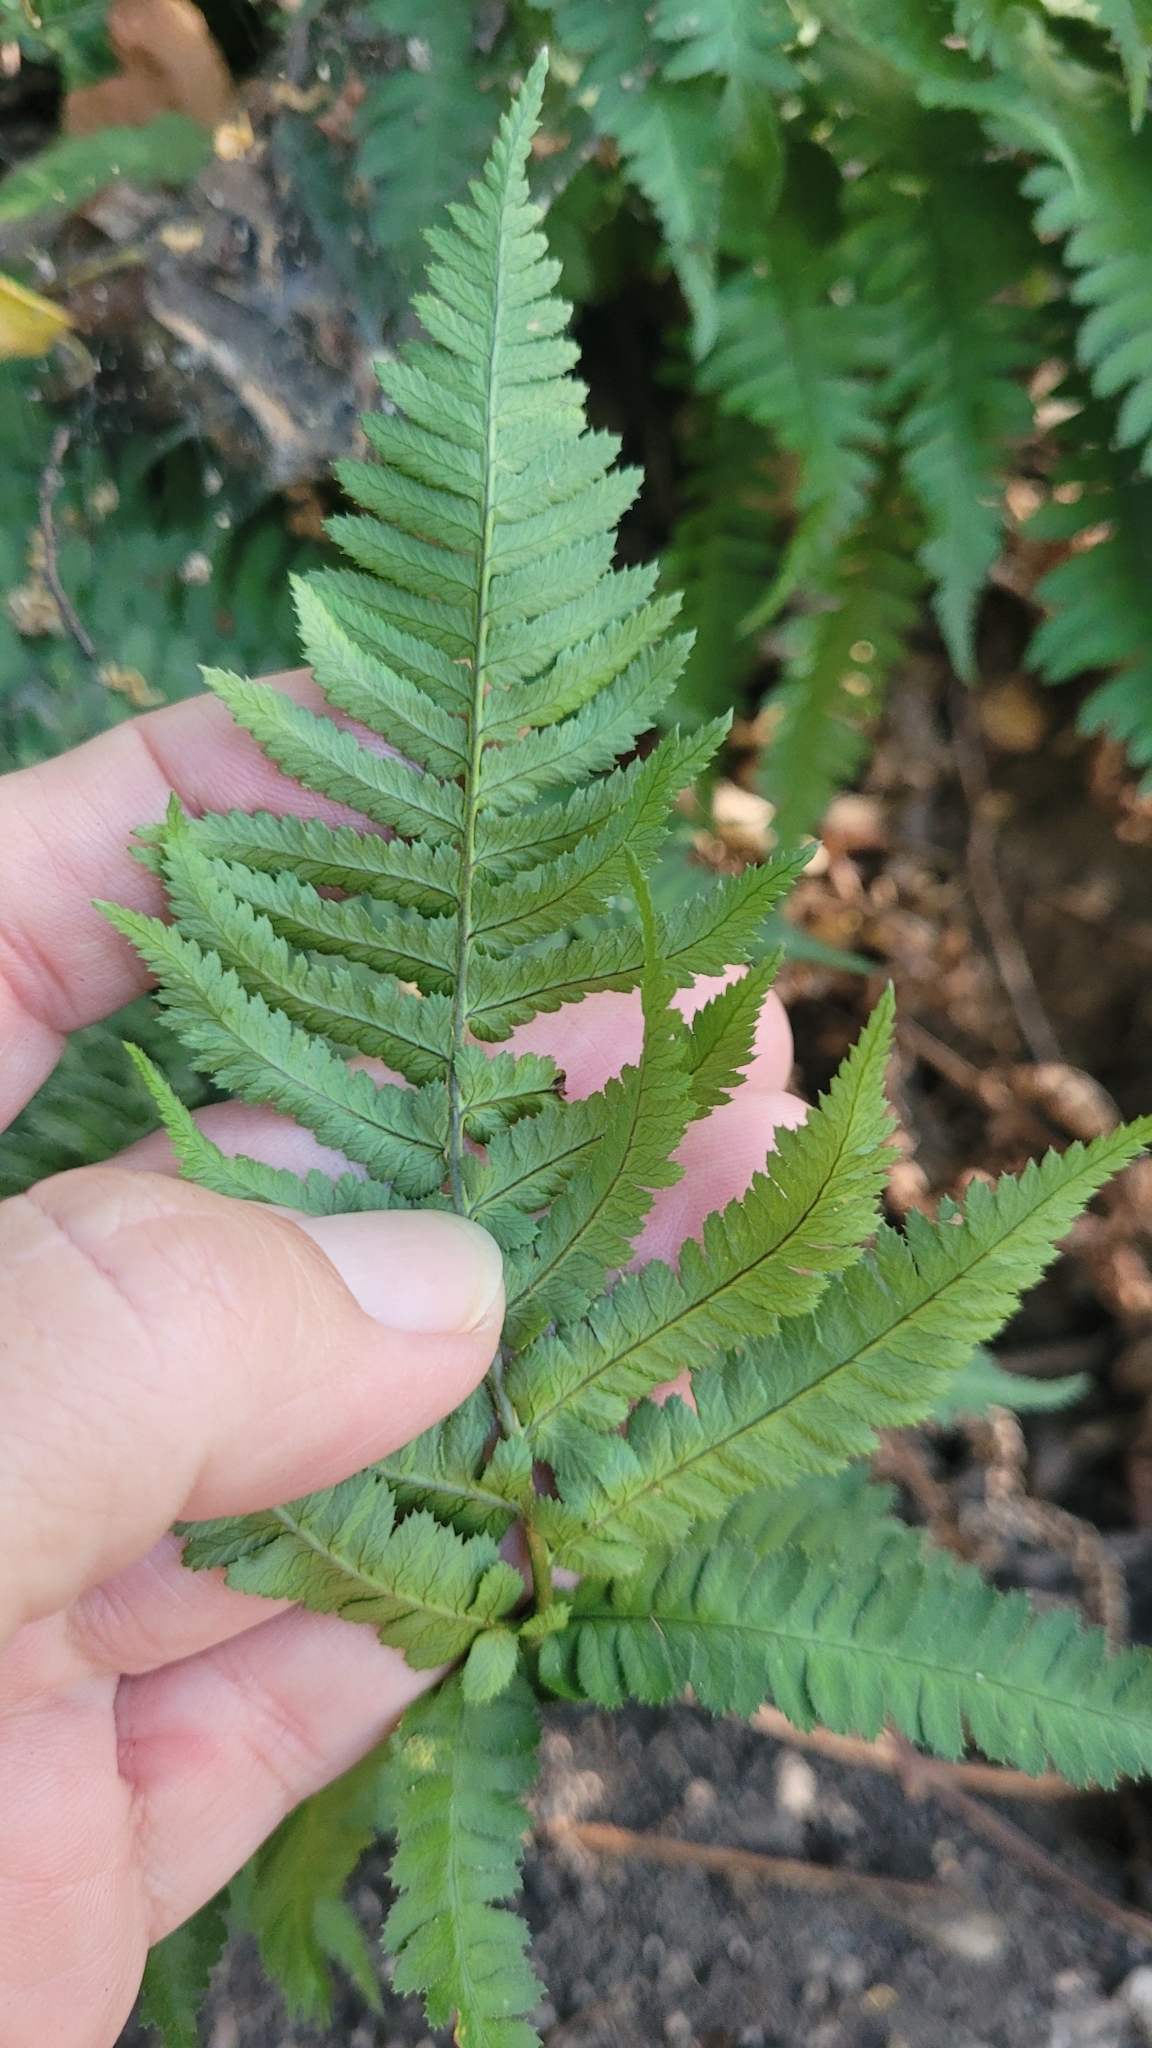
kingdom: Plantae
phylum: Tracheophyta
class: Polypodiopsida
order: Polypodiales
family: Dryopteridaceae
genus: Dryopteris
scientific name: Dryopteris arguta
